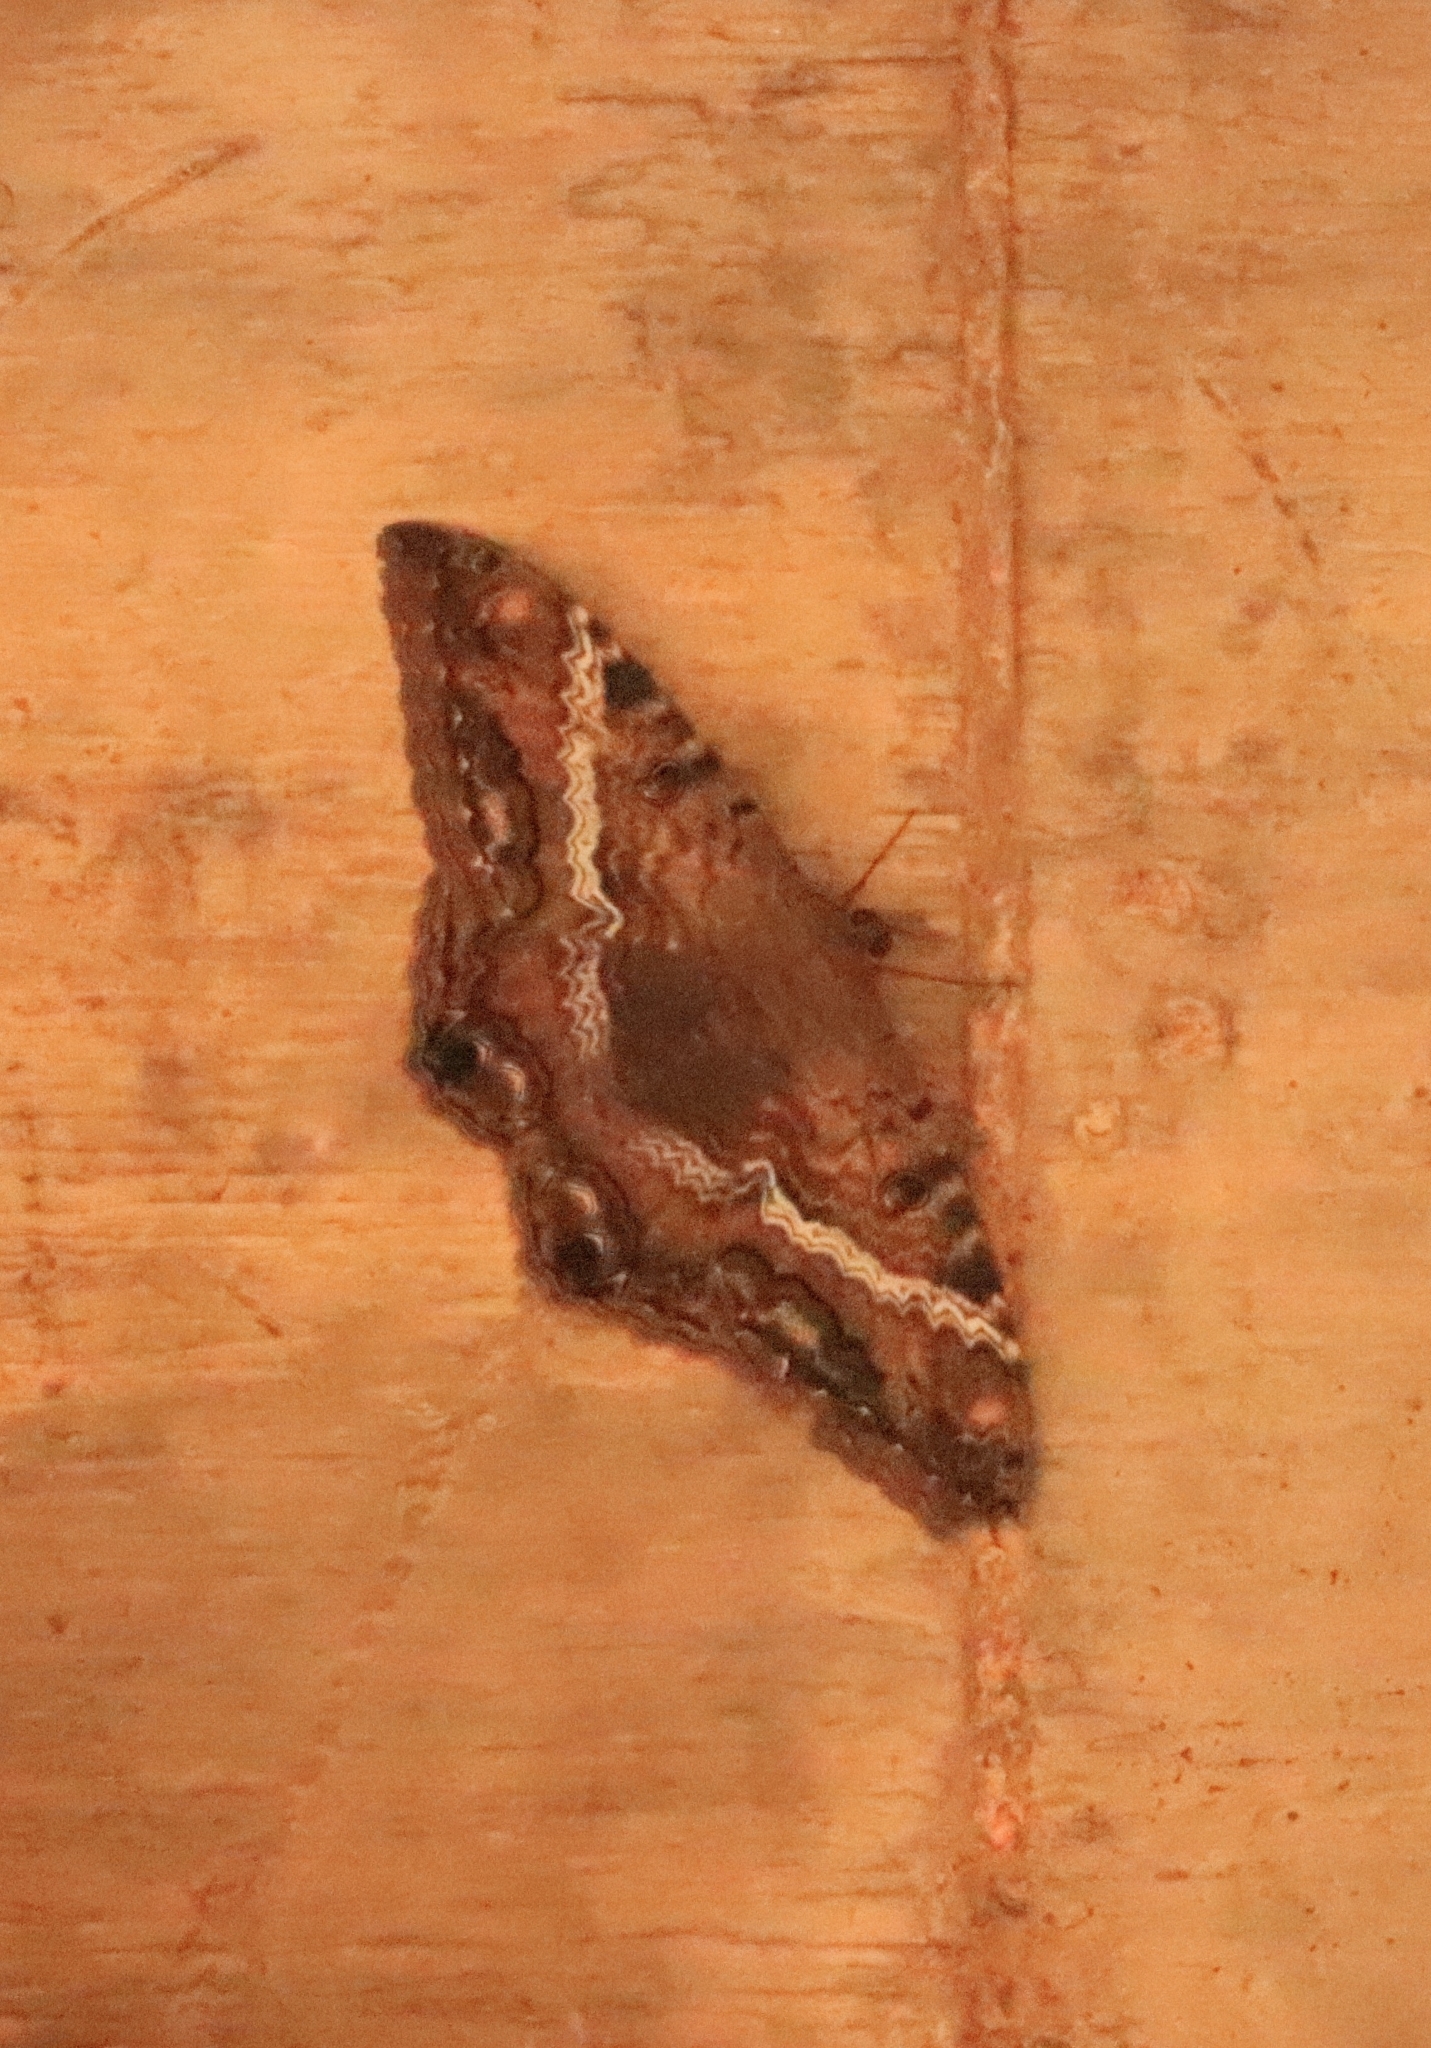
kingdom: Animalia
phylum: Arthropoda
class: Insecta
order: Lepidoptera
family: Erebidae
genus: Ascalapha
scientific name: Ascalapha odorata
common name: Black witch
